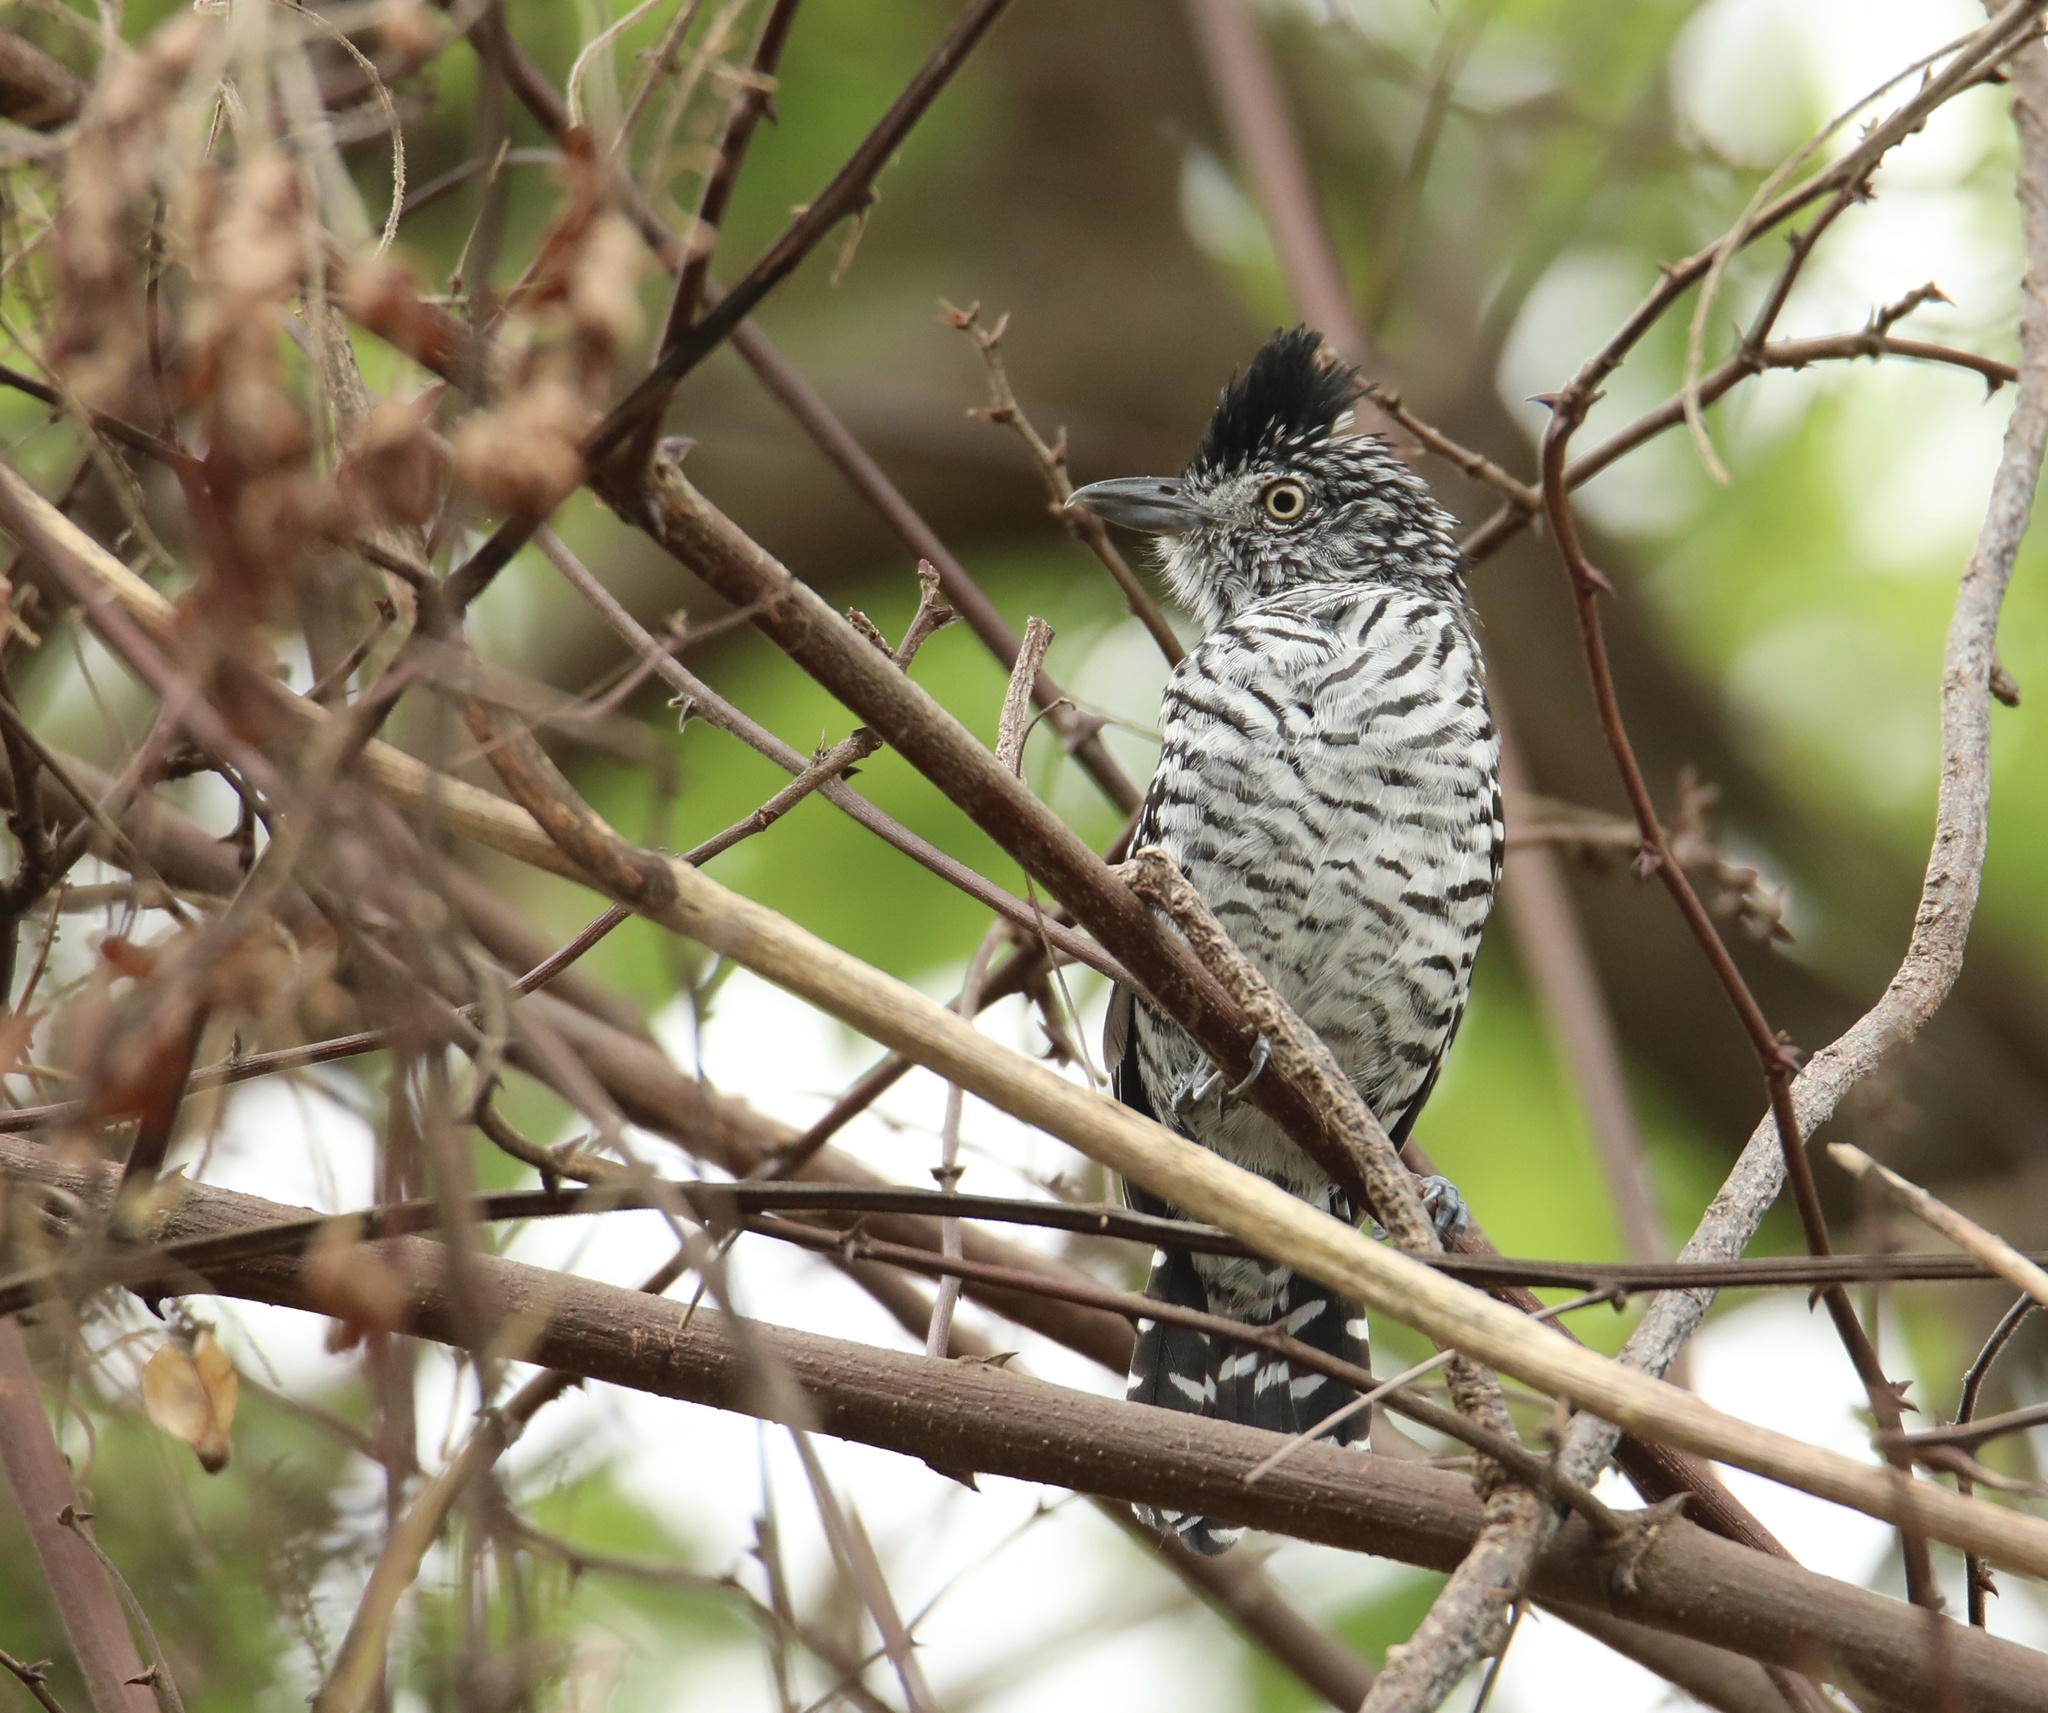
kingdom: Animalia
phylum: Chordata
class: Aves
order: Passeriformes
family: Thamnophilidae
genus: Thamnophilus
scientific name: Thamnophilus doliatus
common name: Barred antshrike
